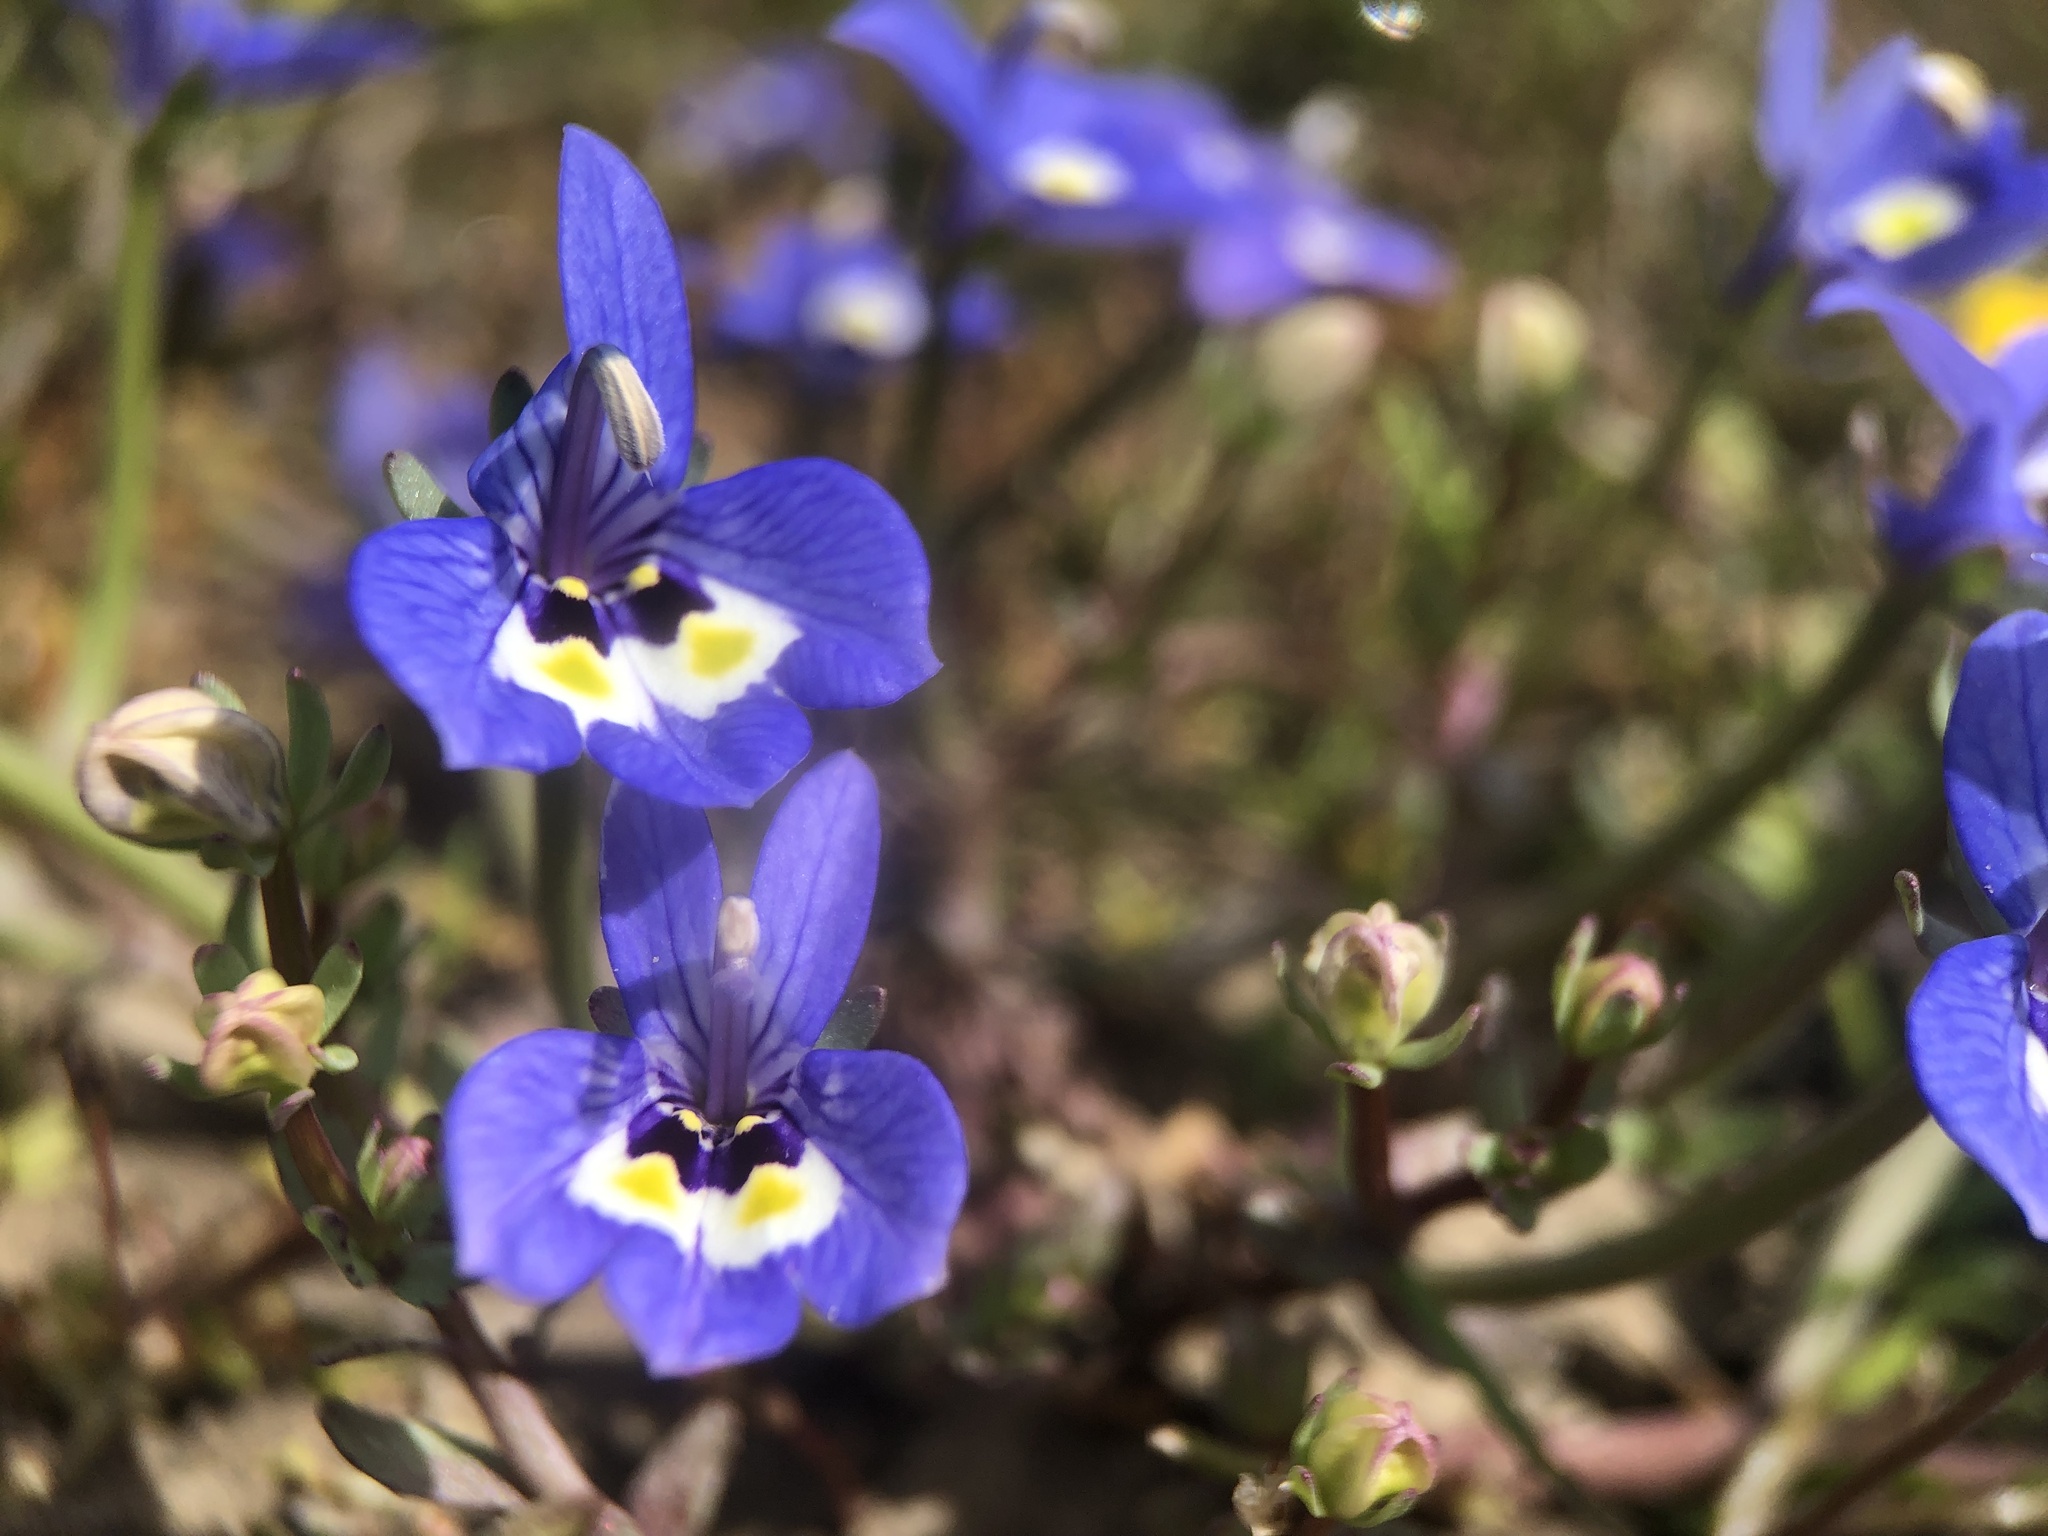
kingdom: Plantae
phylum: Tracheophyta
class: Magnoliopsida
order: Asterales
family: Campanulaceae
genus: Downingia
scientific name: Downingia insignis
